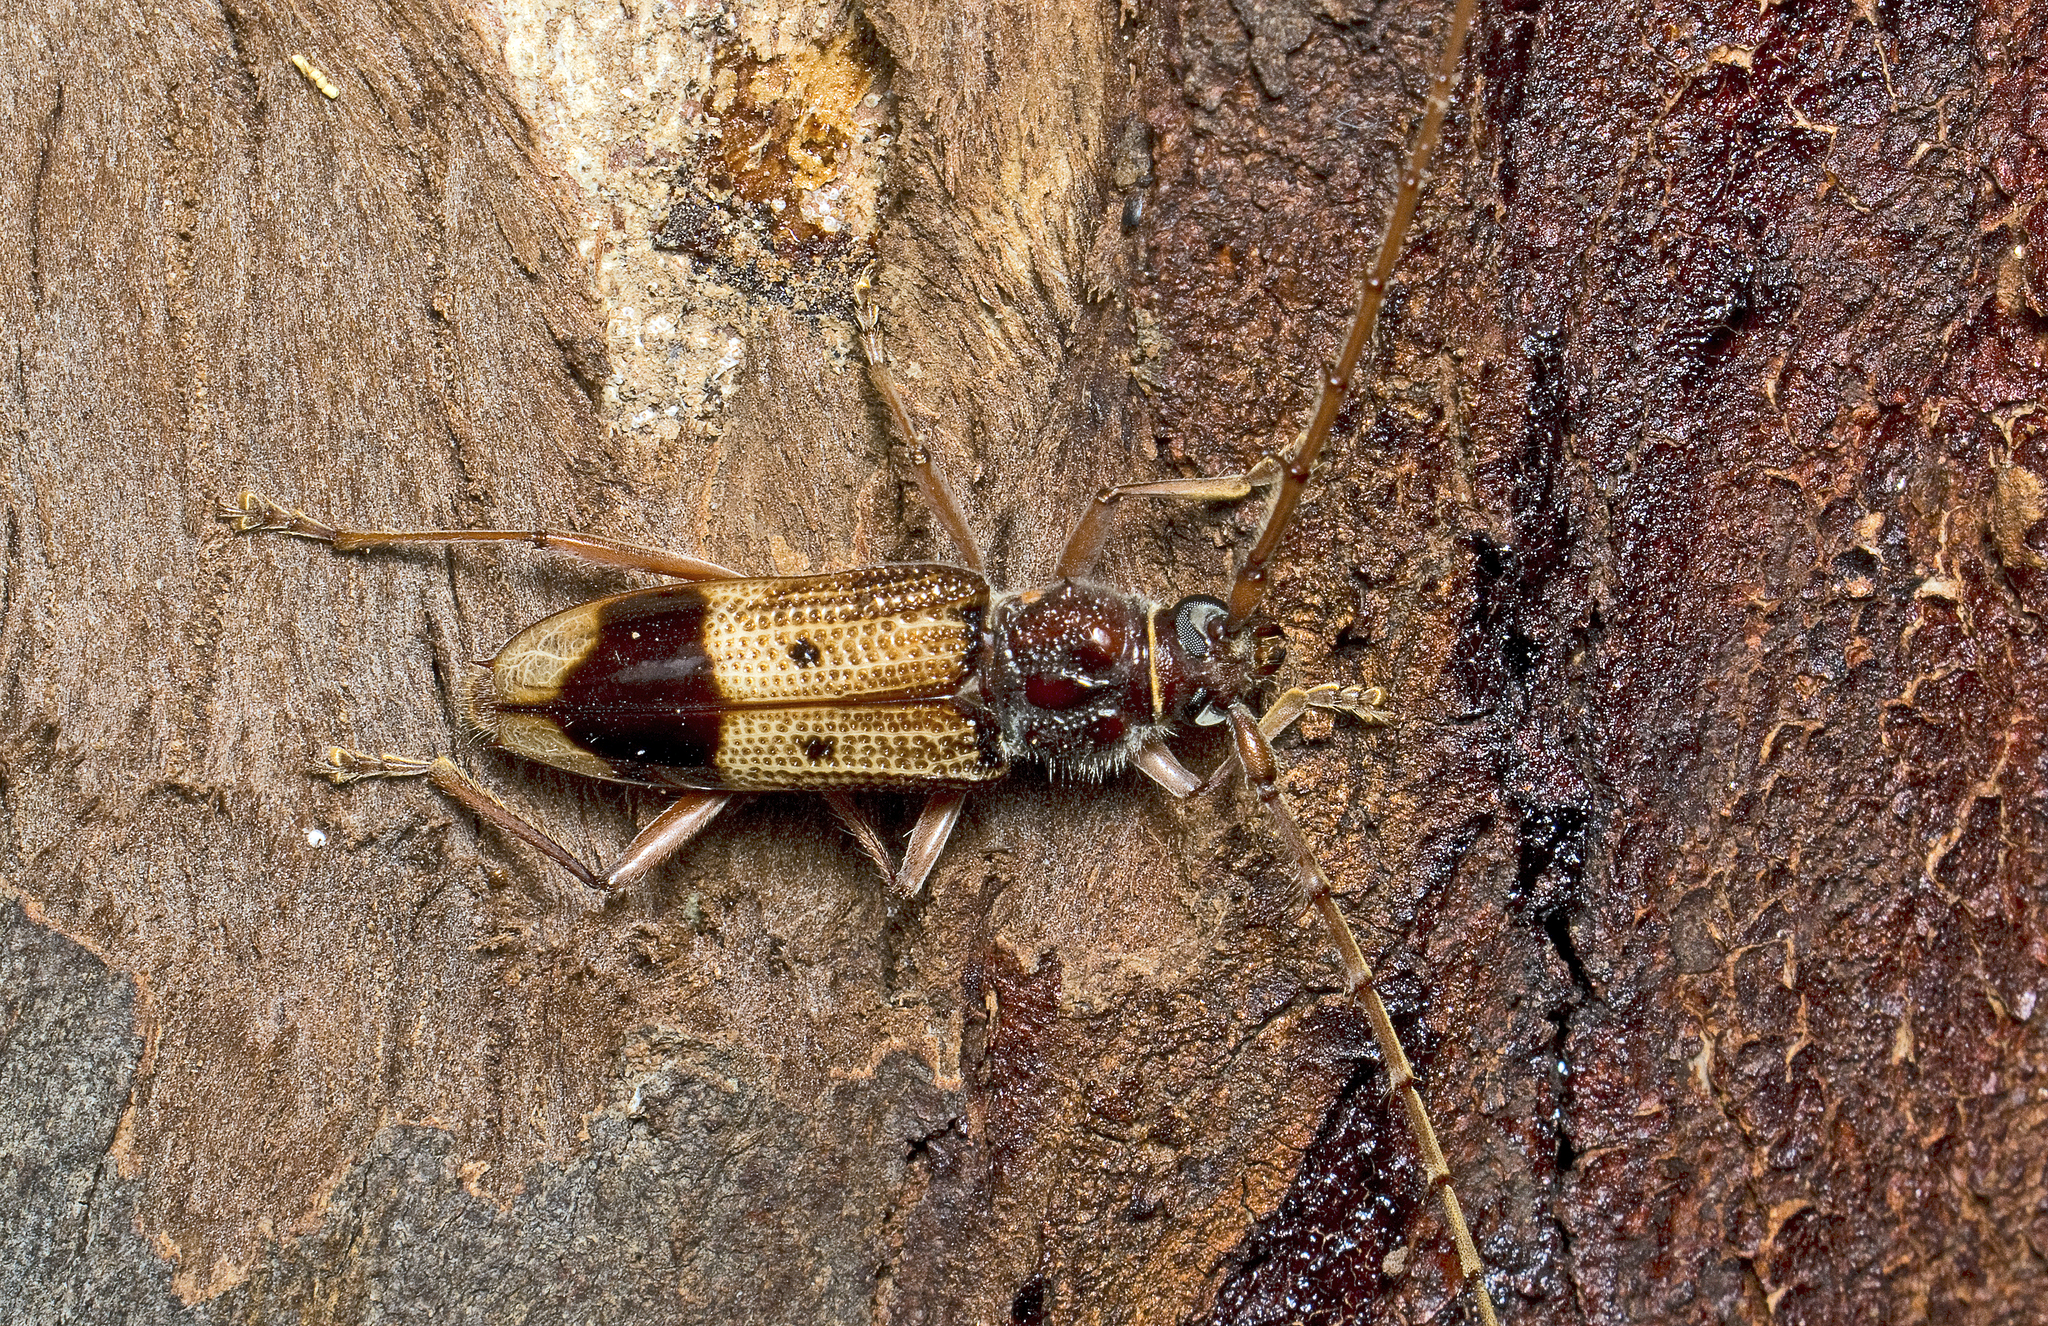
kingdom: Animalia
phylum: Arthropoda
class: Insecta
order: Coleoptera
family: Cerambycidae
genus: Phoracantha
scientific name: Phoracantha recurva
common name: Eucalyptus longhorned borer
